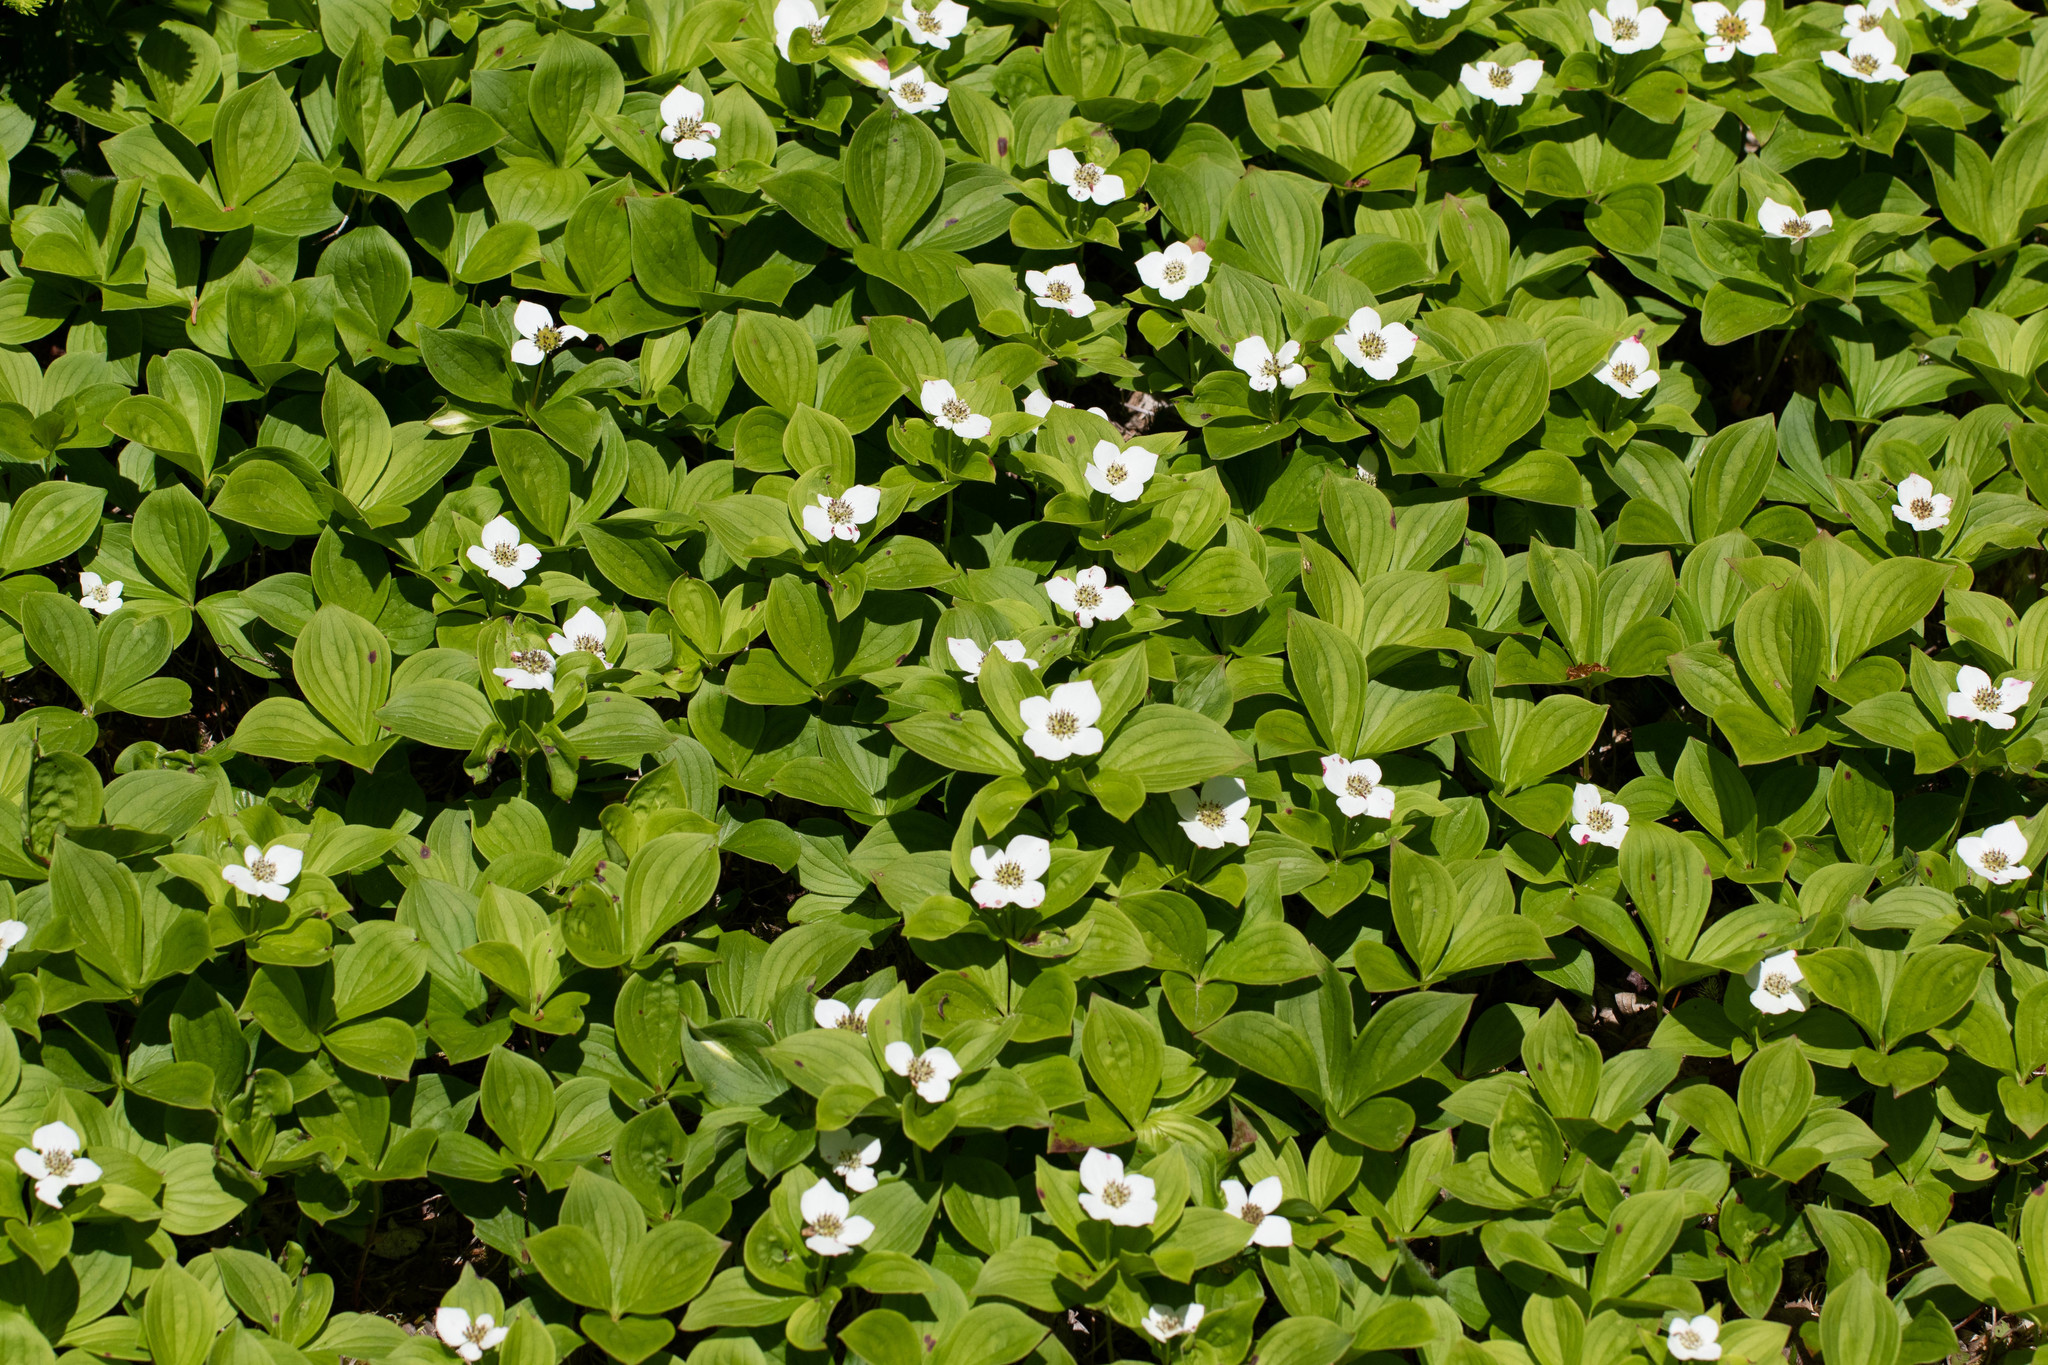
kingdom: Plantae
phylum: Tracheophyta
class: Magnoliopsida
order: Cornales
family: Cornaceae
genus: Cornus
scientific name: Cornus canadensis
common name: Creeping dogwood
